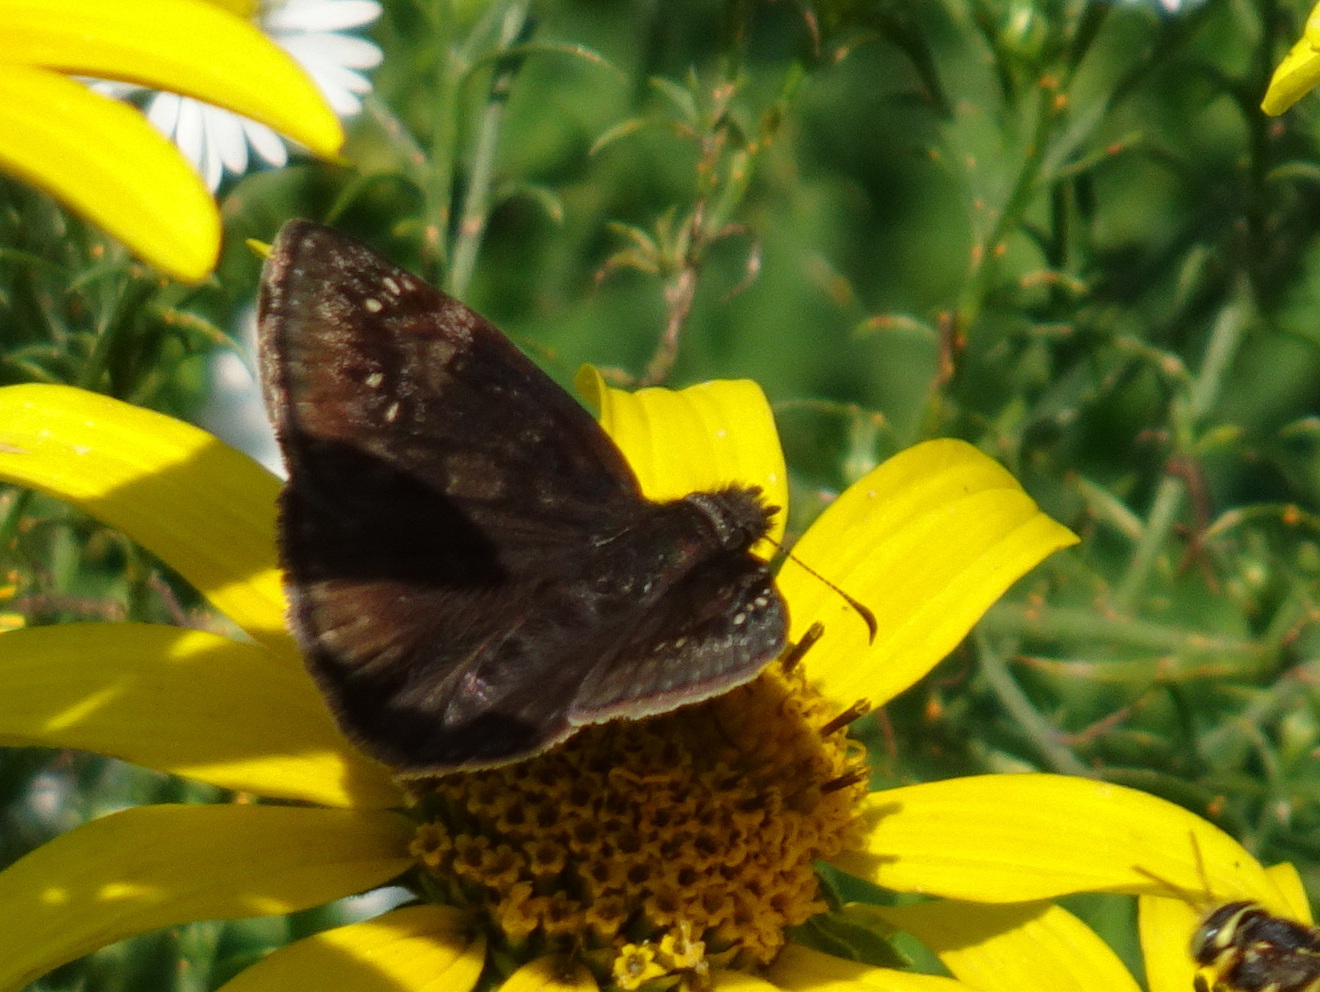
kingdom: Animalia
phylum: Arthropoda
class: Insecta
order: Lepidoptera
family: Hesperiidae
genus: Erynnis
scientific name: Erynnis baptisiae
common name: Wild indigo duskywing
